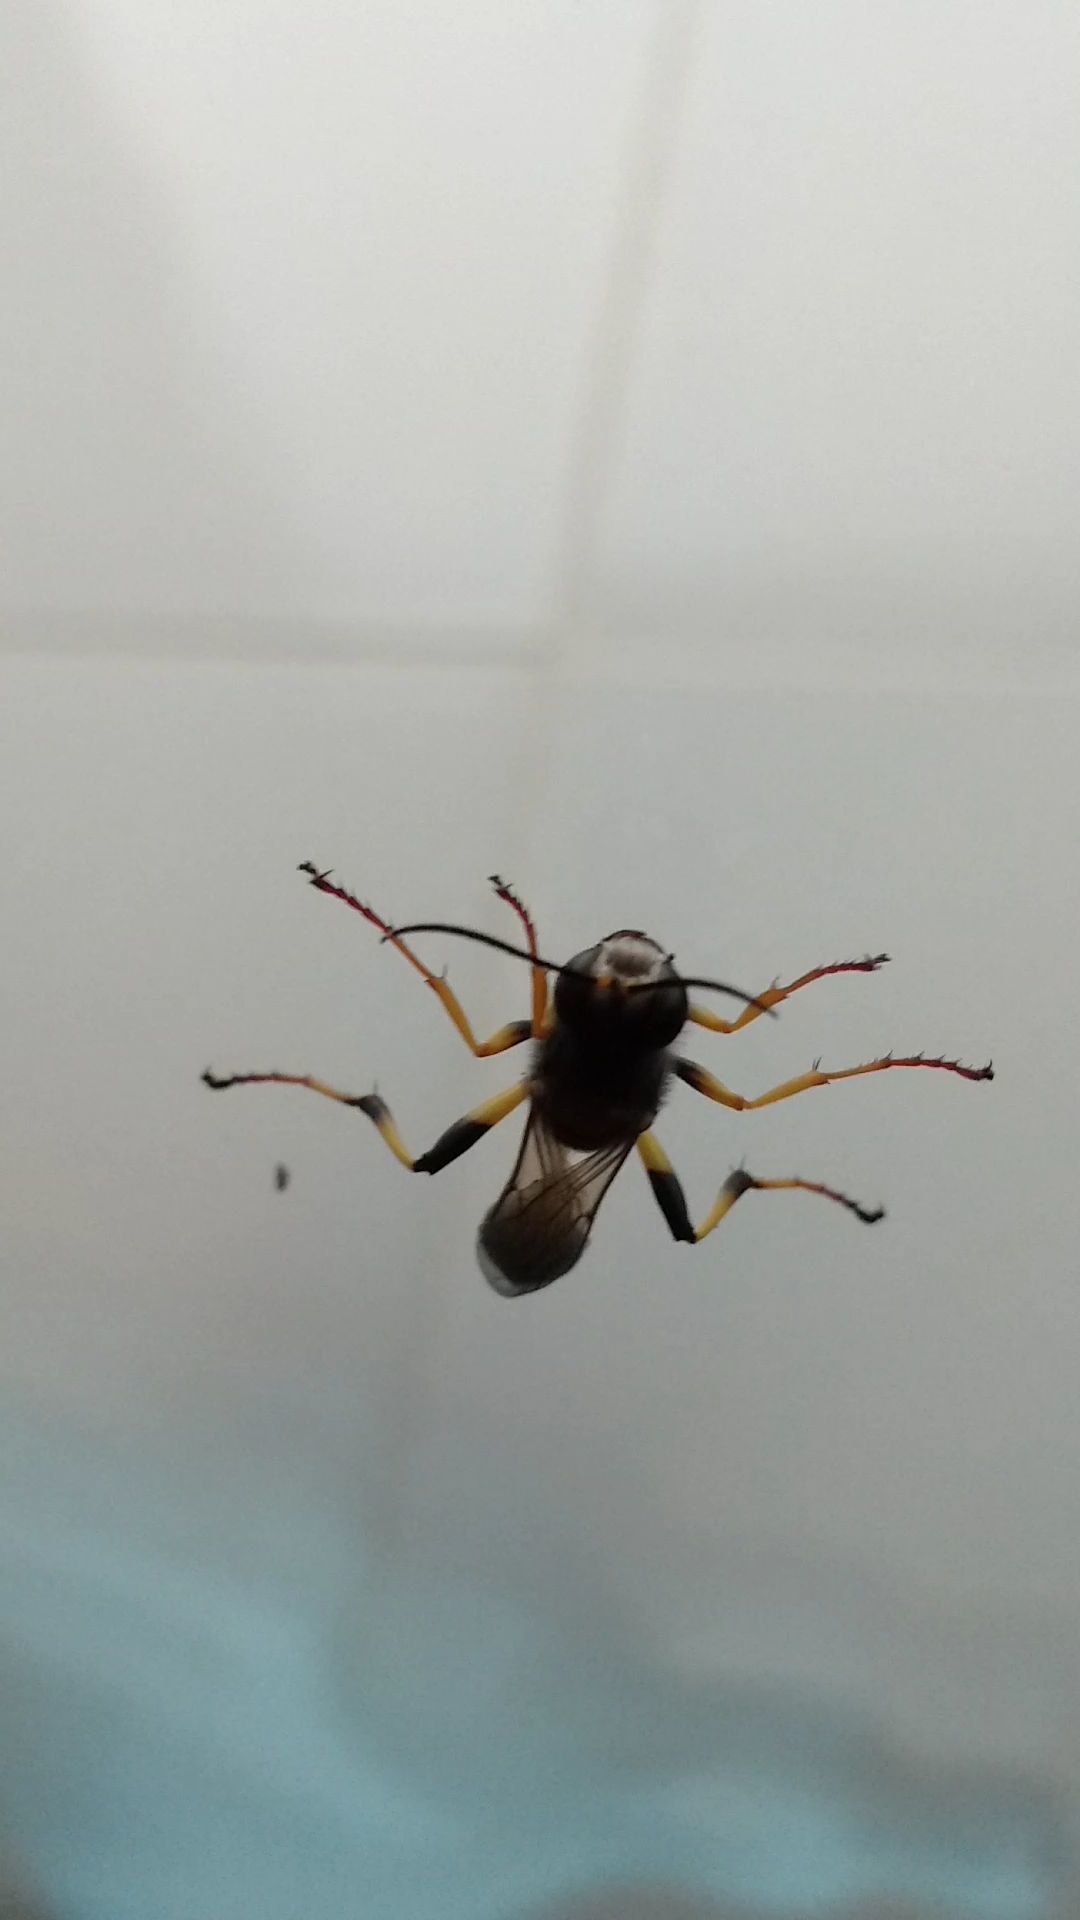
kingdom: Animalia
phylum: Arthropoda
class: Insecta
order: Hymenoptera
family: Sphecidae
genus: Sceliphron
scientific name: Sceliphron spirifex
